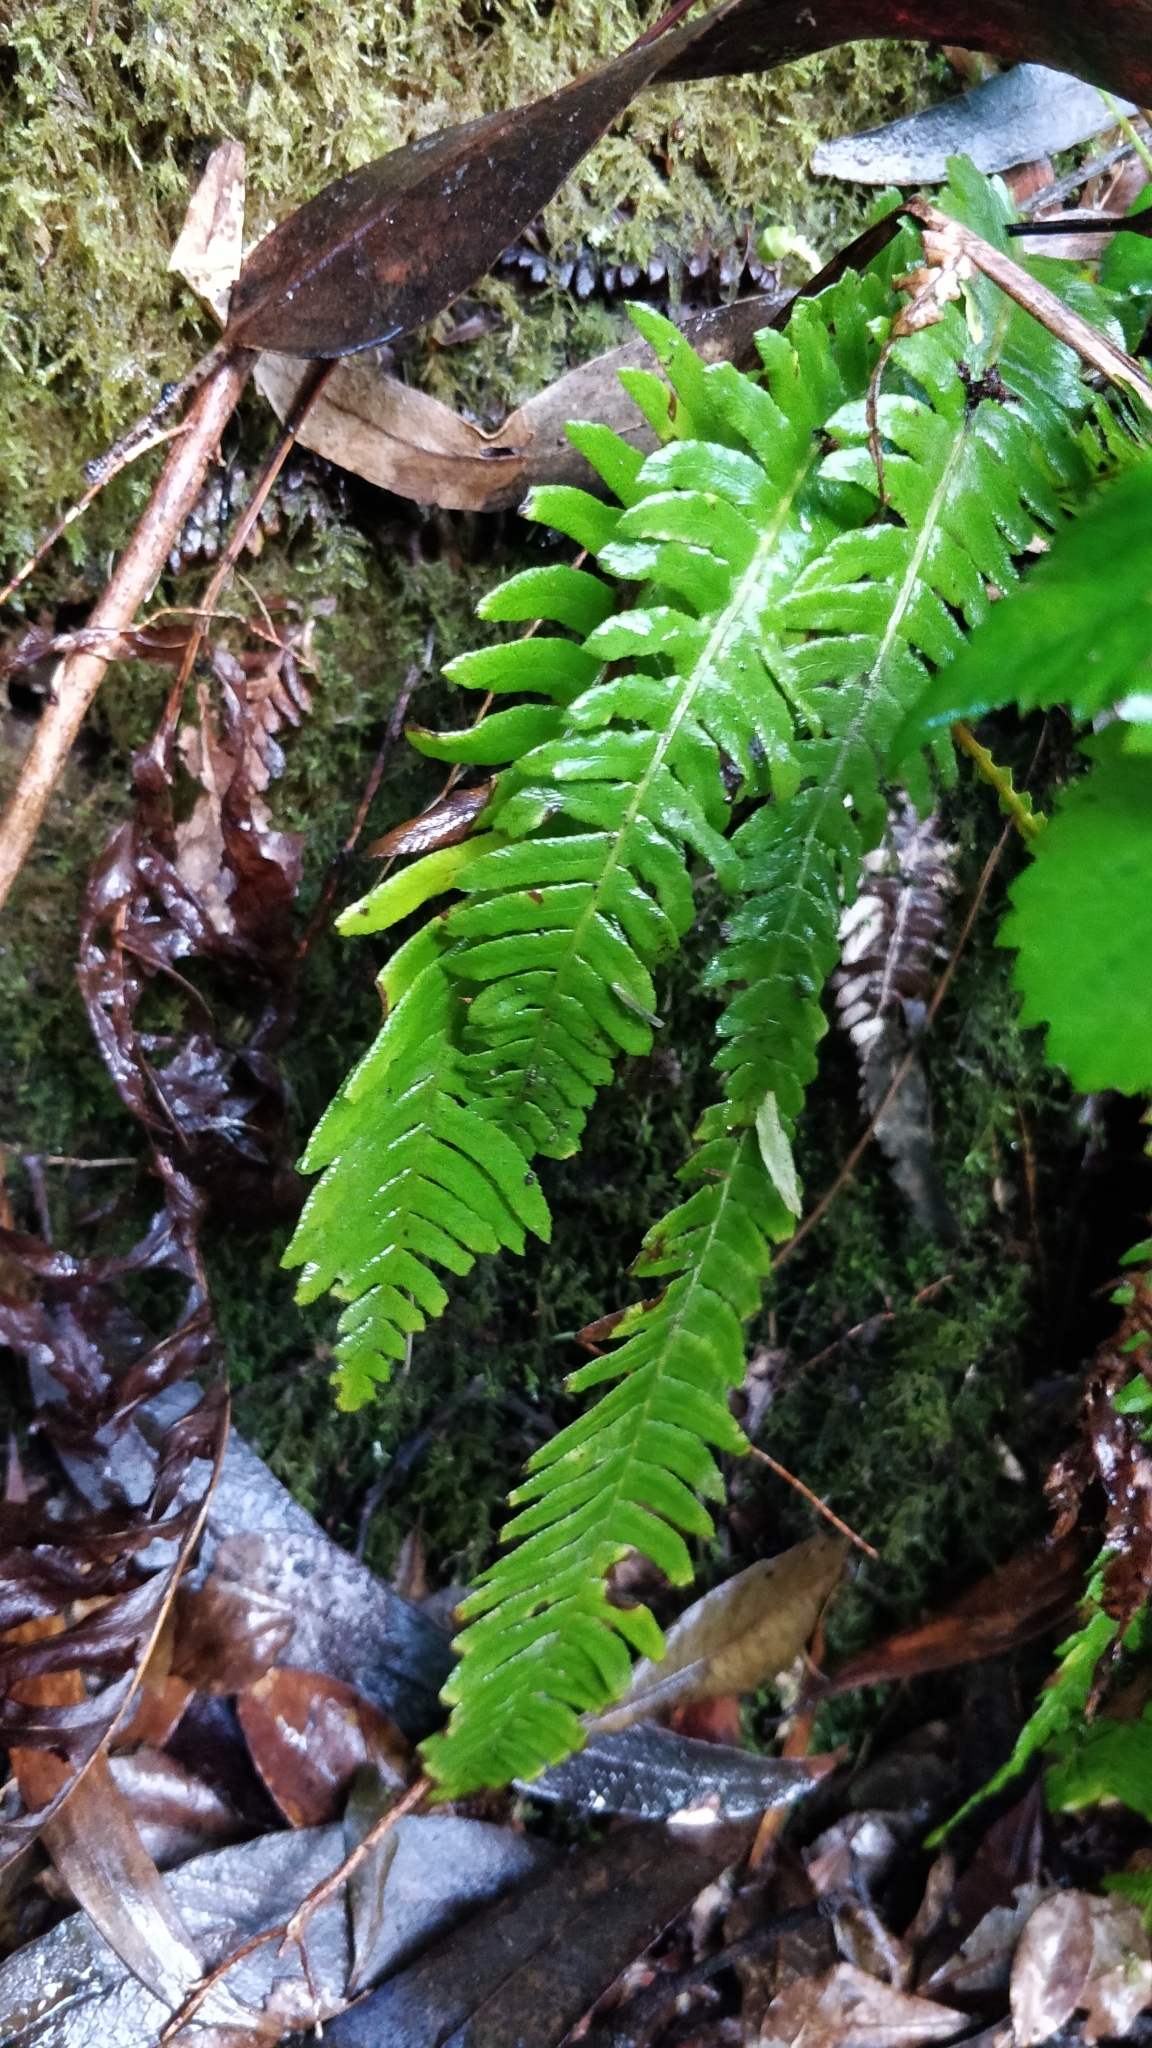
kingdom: Plantae
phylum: Tracheophyta
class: Polypodiopsida
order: Polypodiales
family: Blechnaceae
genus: Struthiopteris
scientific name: Struthiopteris spicant
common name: Deer fern
